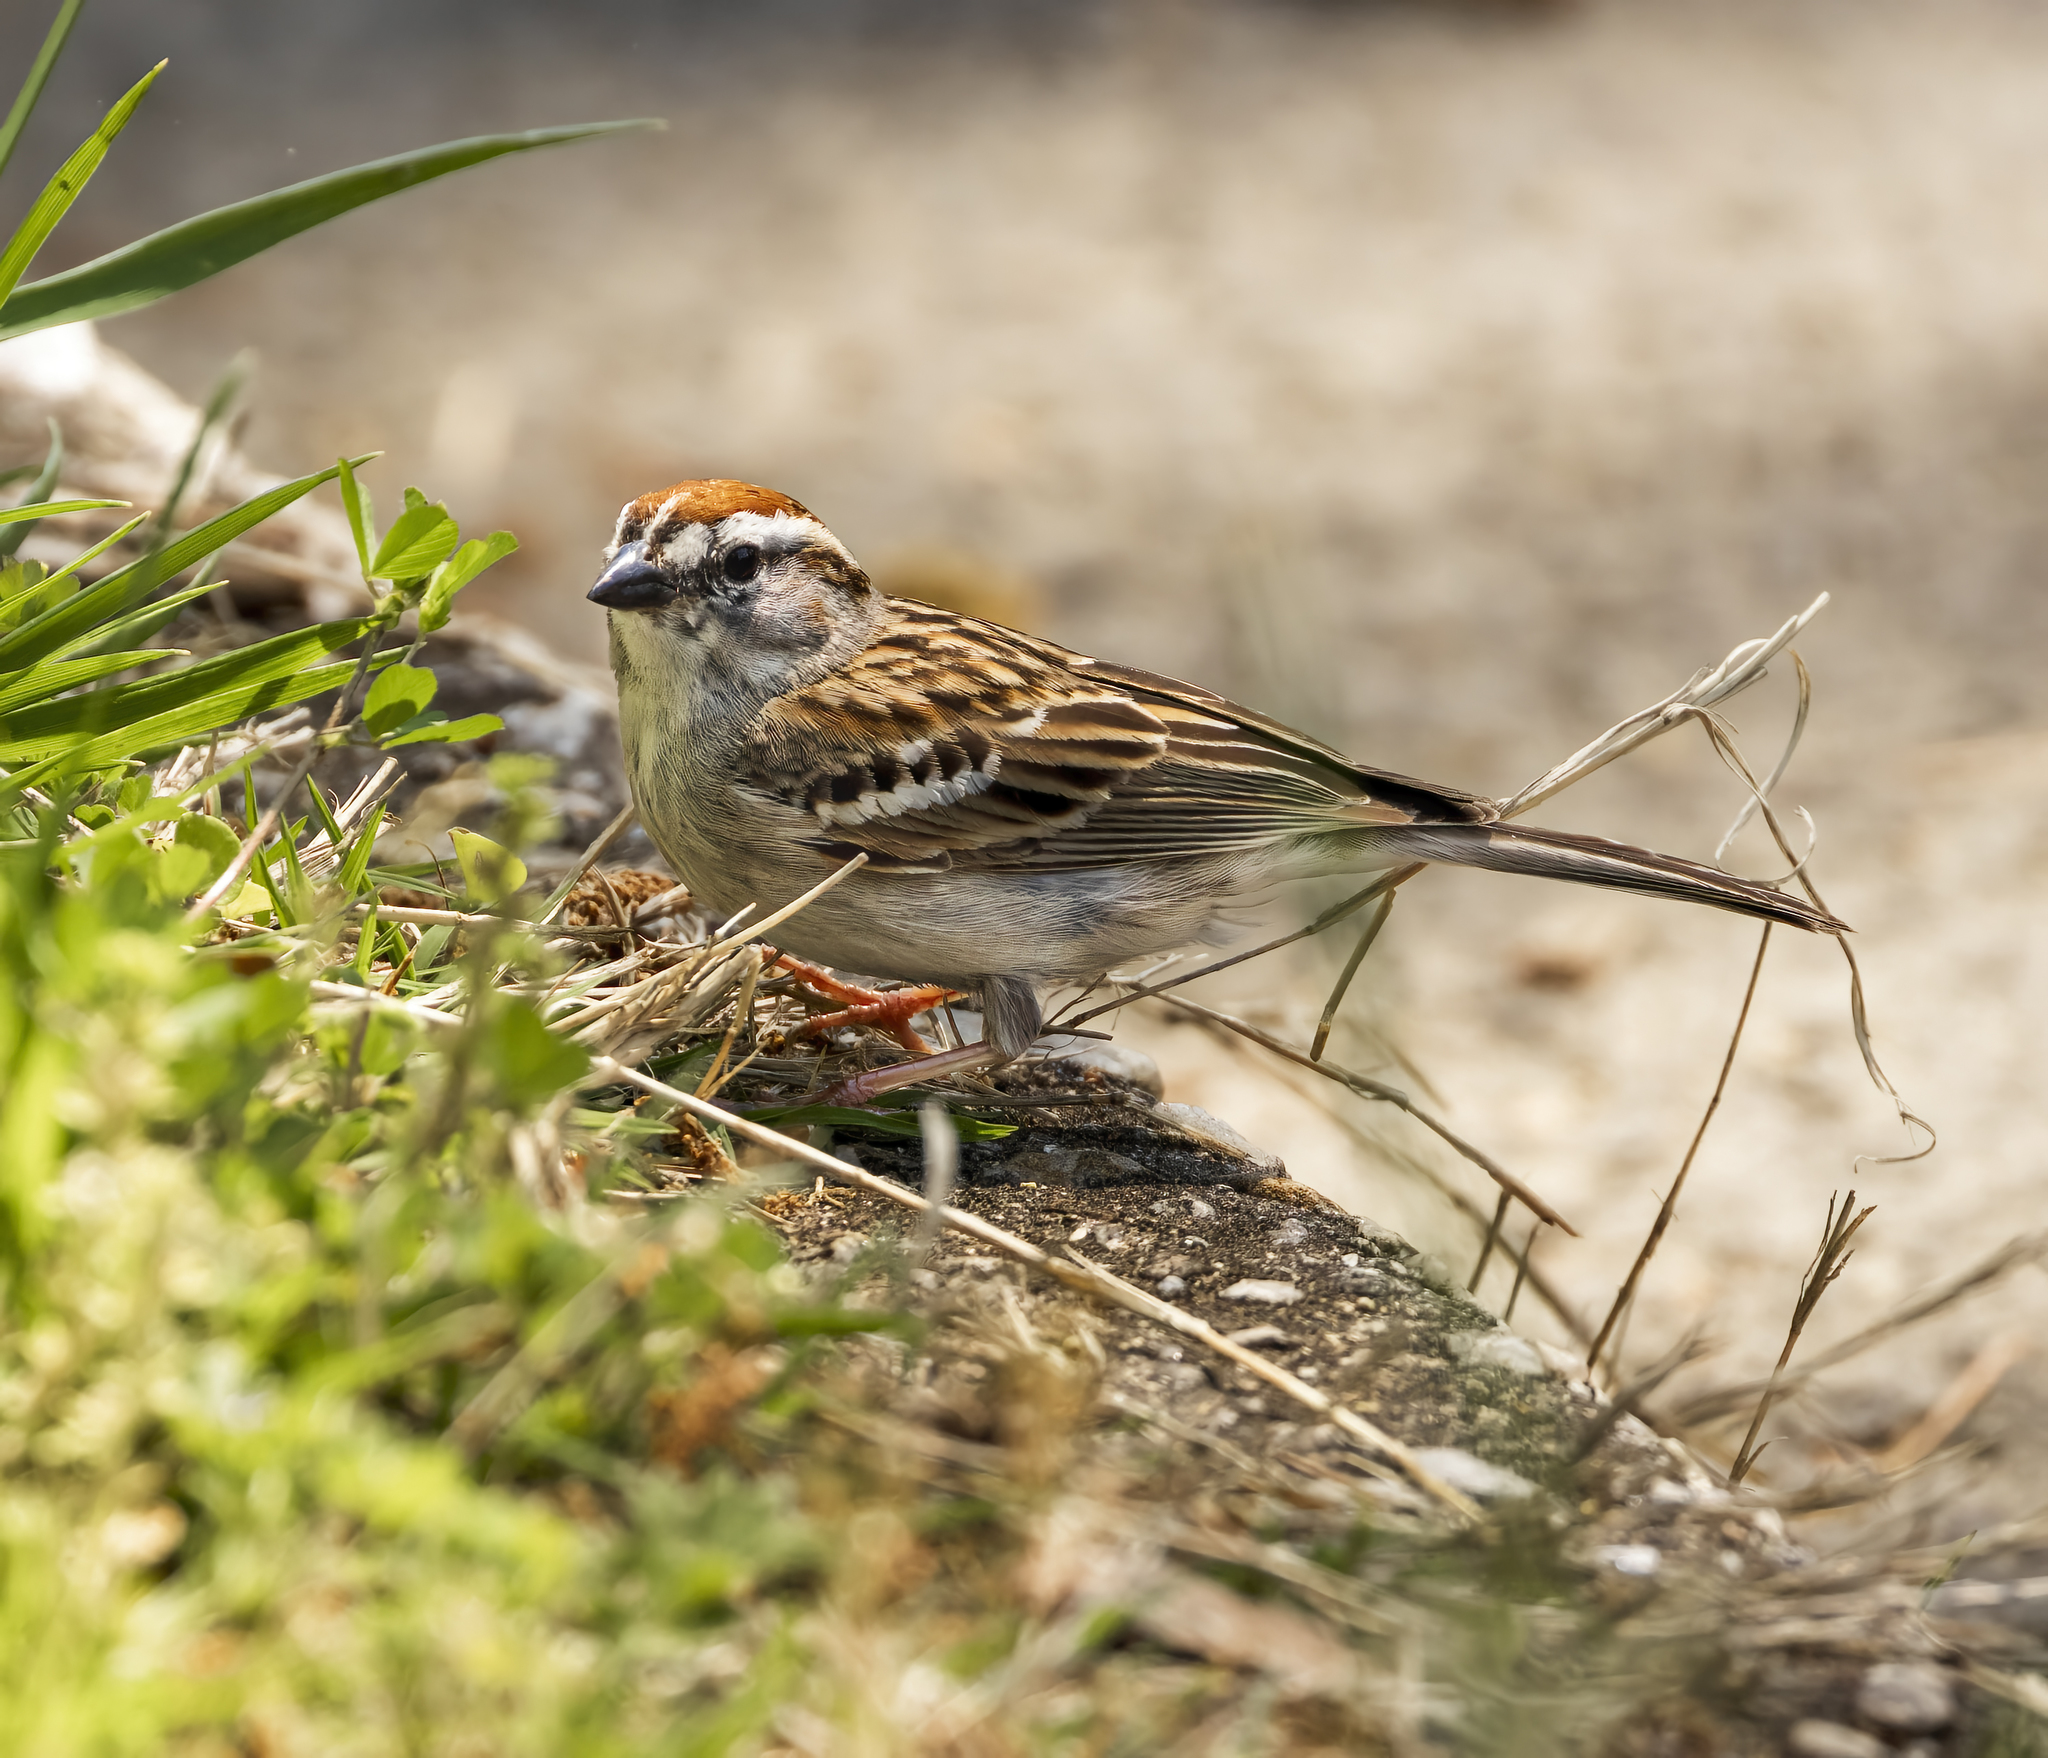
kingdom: Animalia
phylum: Chordata
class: Aves
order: Passeriformes
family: Passerellidae
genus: Spizella
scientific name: Spizella passerina
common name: Chipping sparrow
